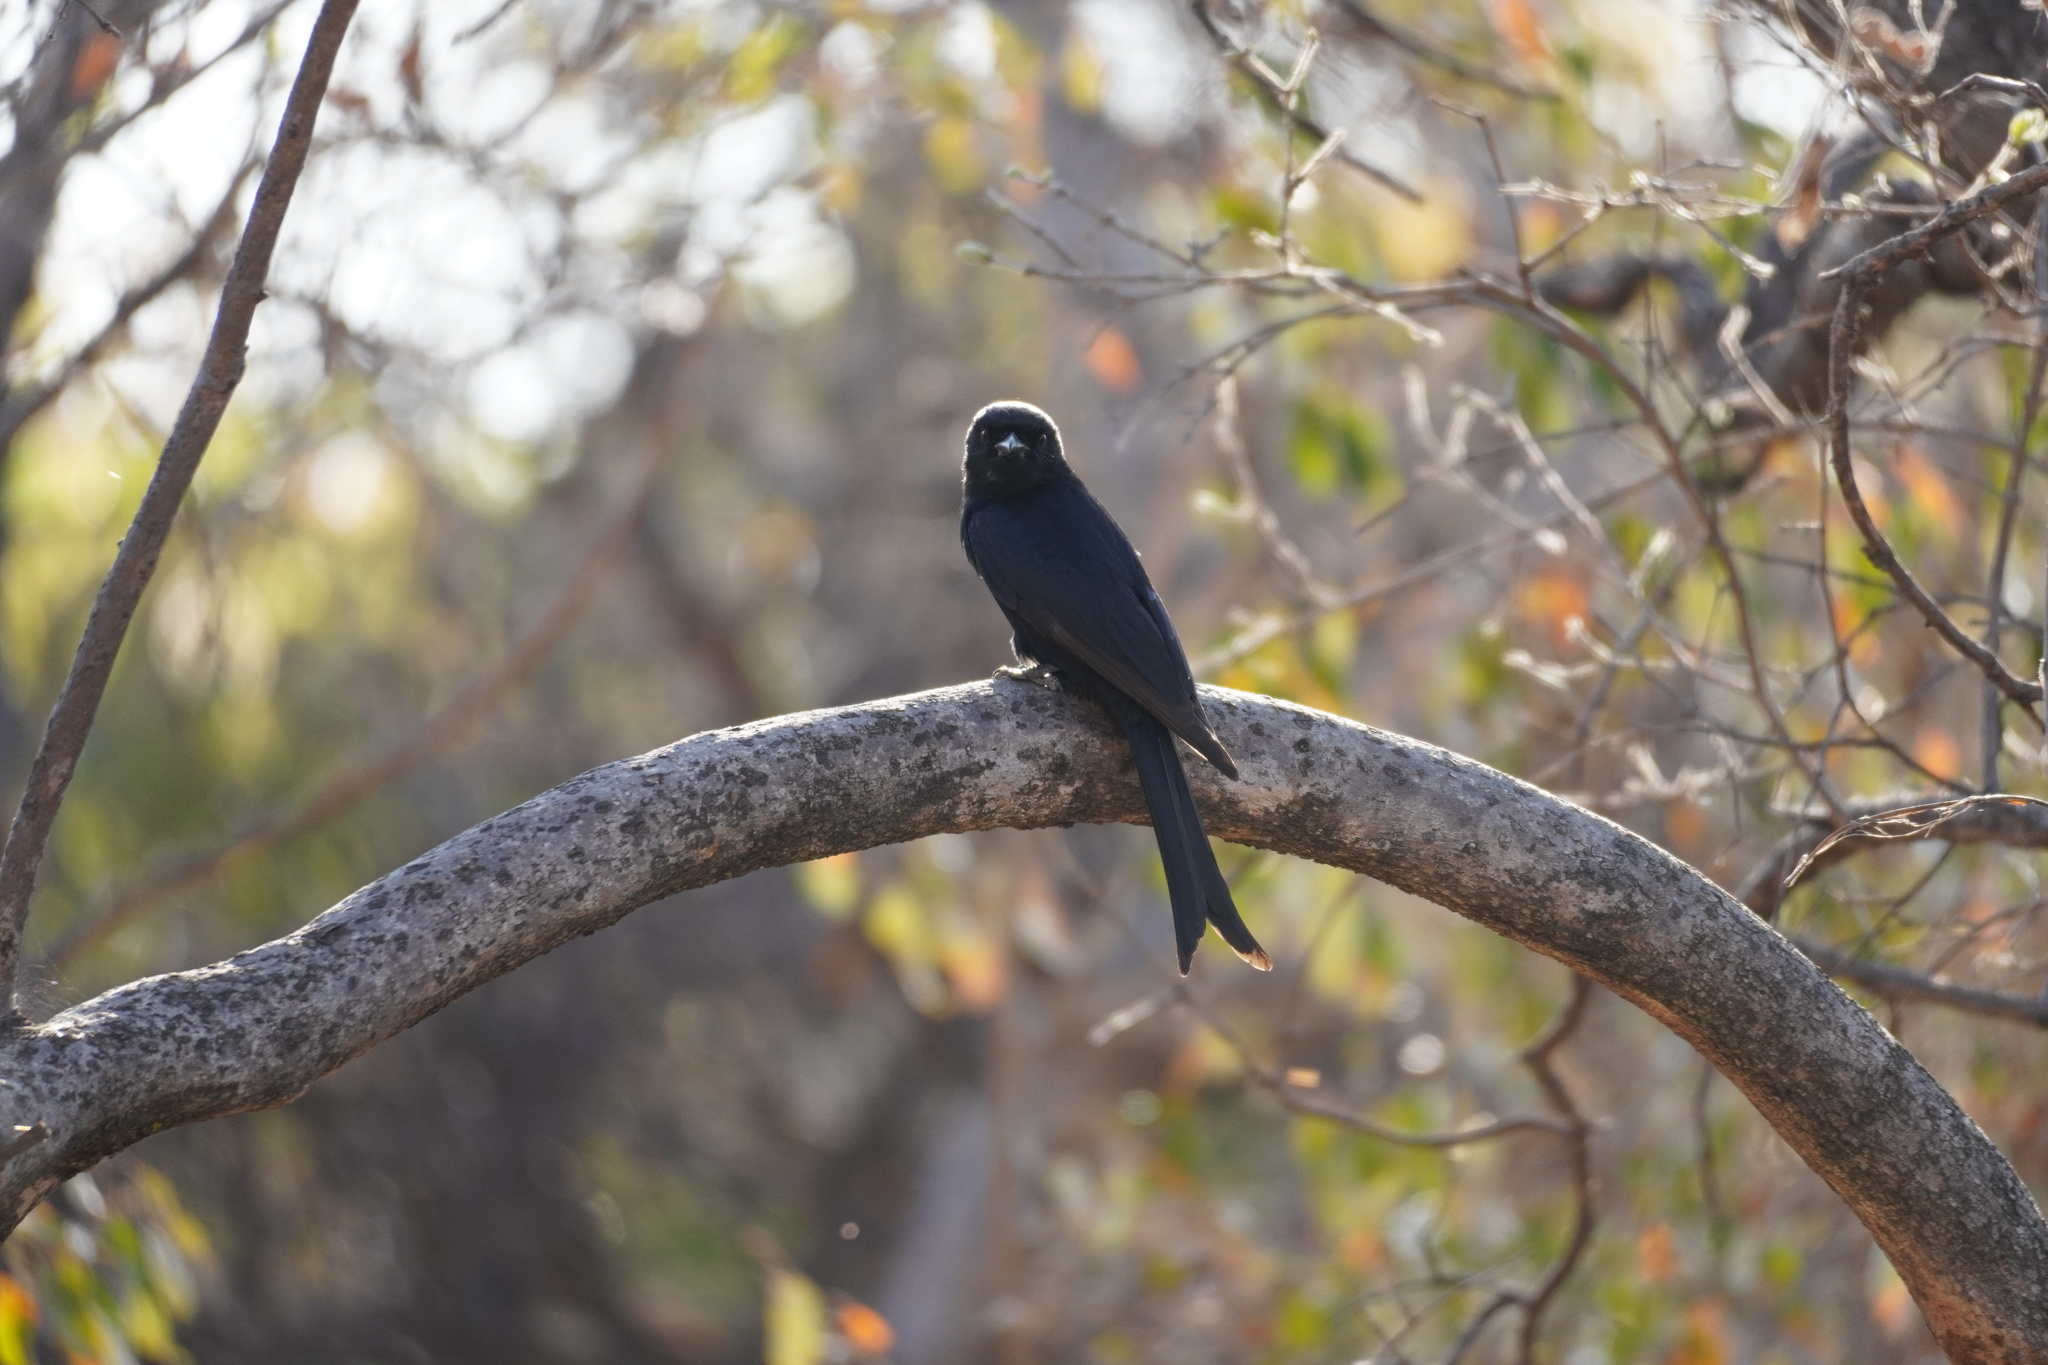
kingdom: Animalia
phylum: Chordata
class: Aves
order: Passeriformes
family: Dicruridae
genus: Dicrurus
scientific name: Dicrurus adsimilis
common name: Fork-tailed drongo
